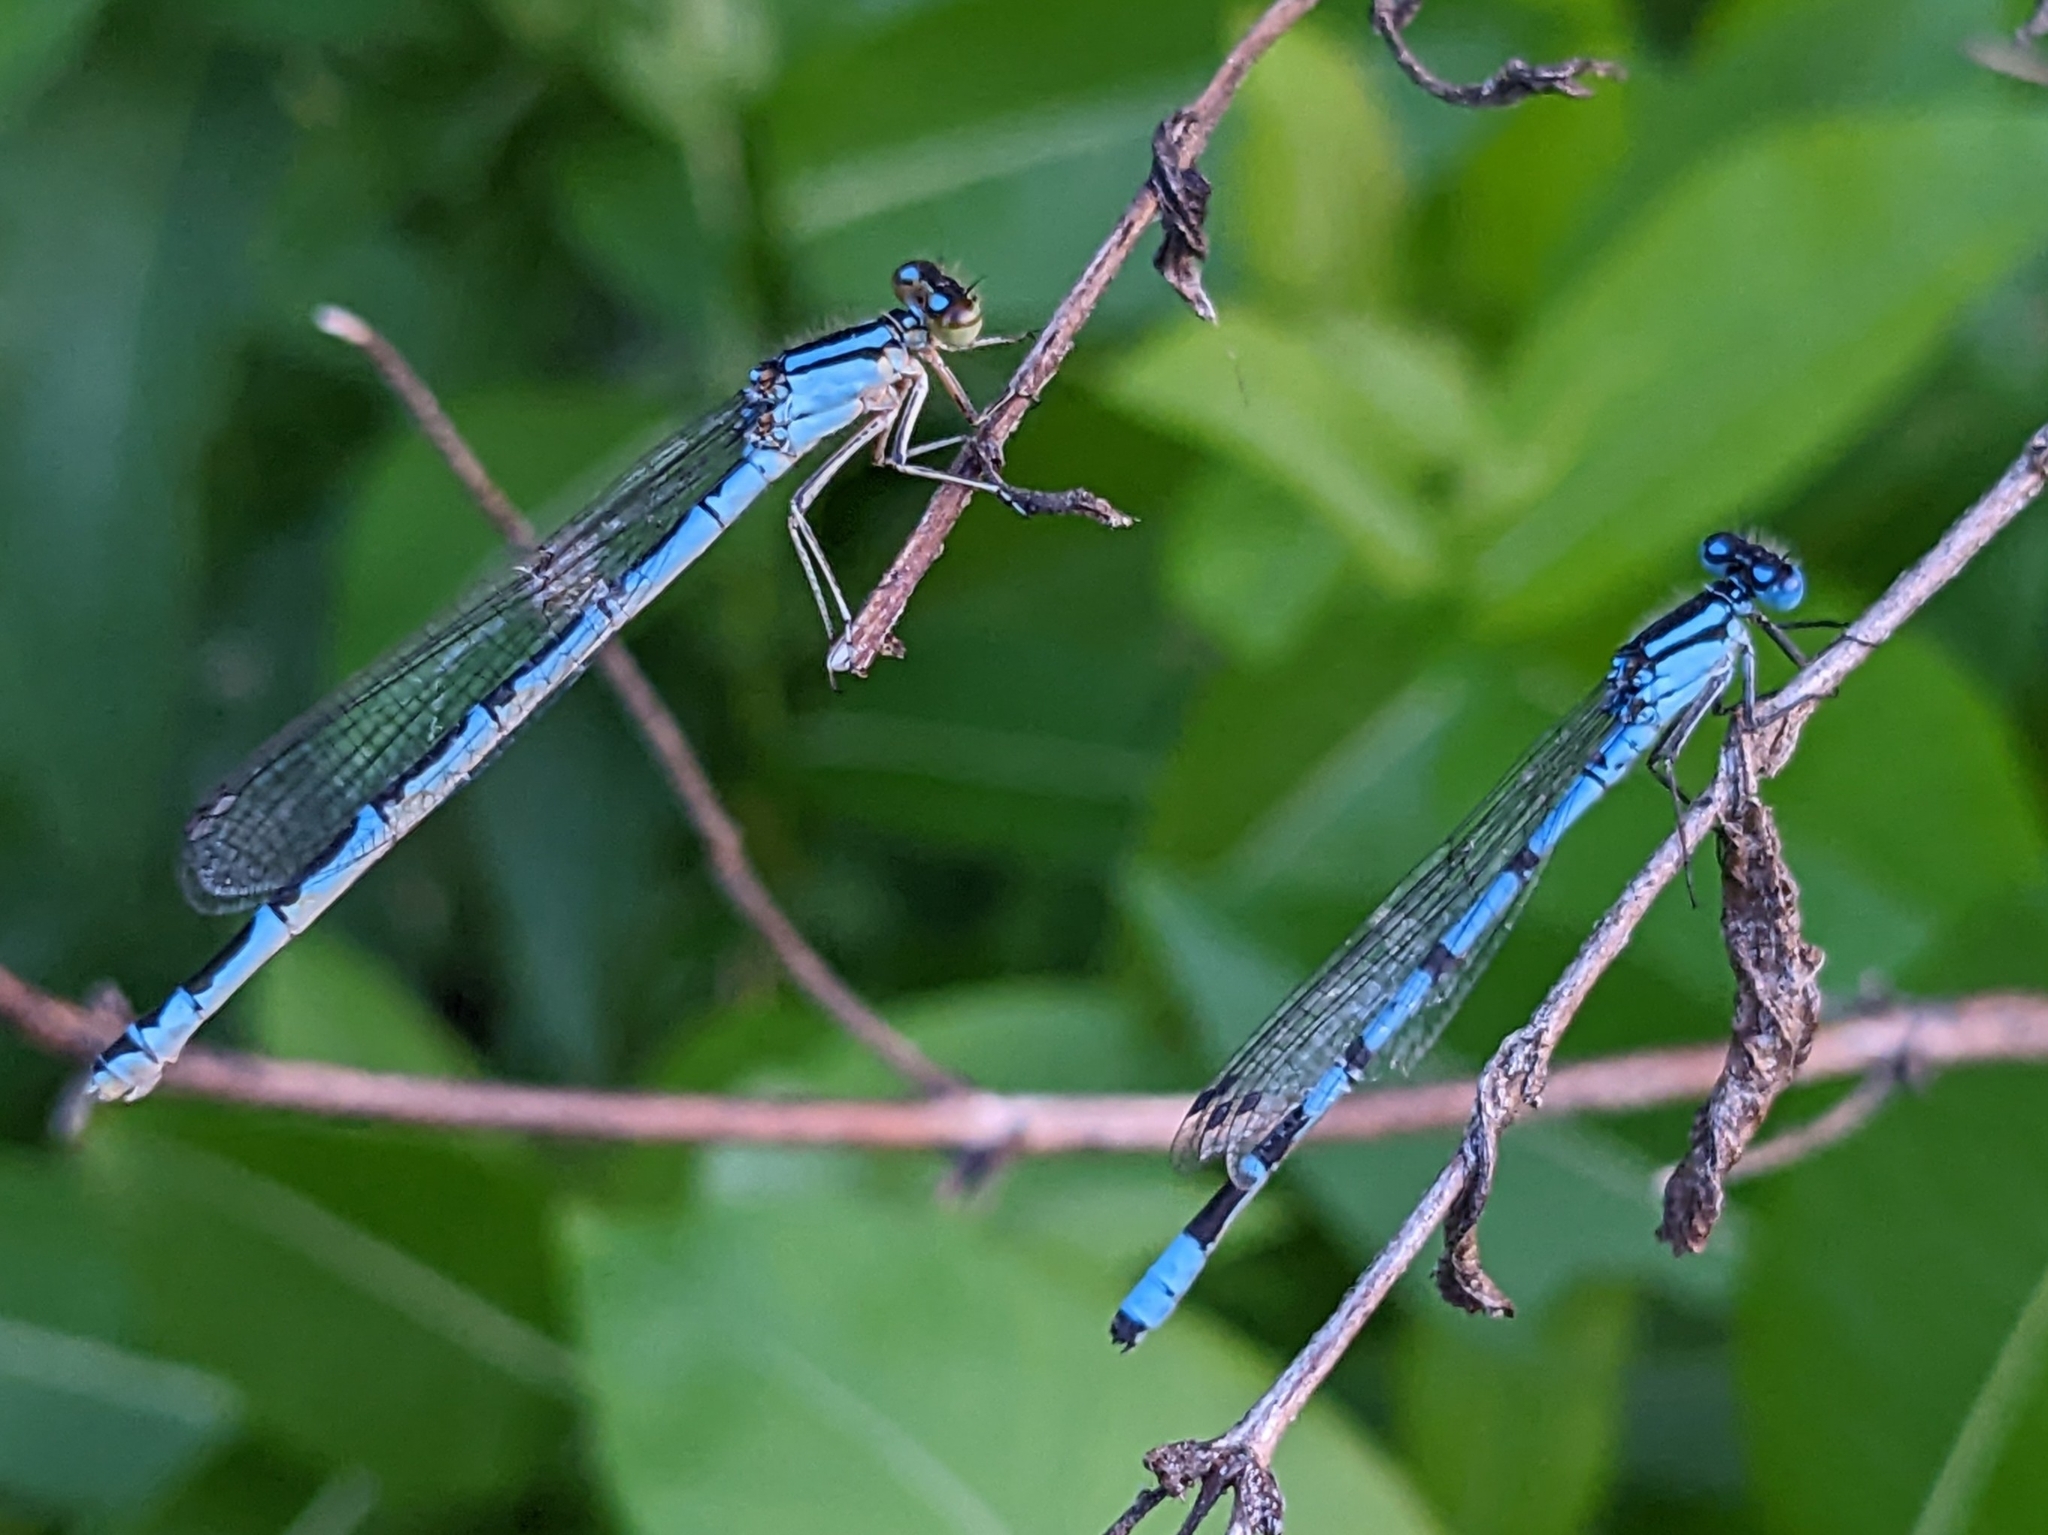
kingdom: Animalia
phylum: Arthropoda
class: Insecta
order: Odonata
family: Coenagrionidae
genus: Enallagma
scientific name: Enallagma cyathigerum
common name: Common blue damselfly
